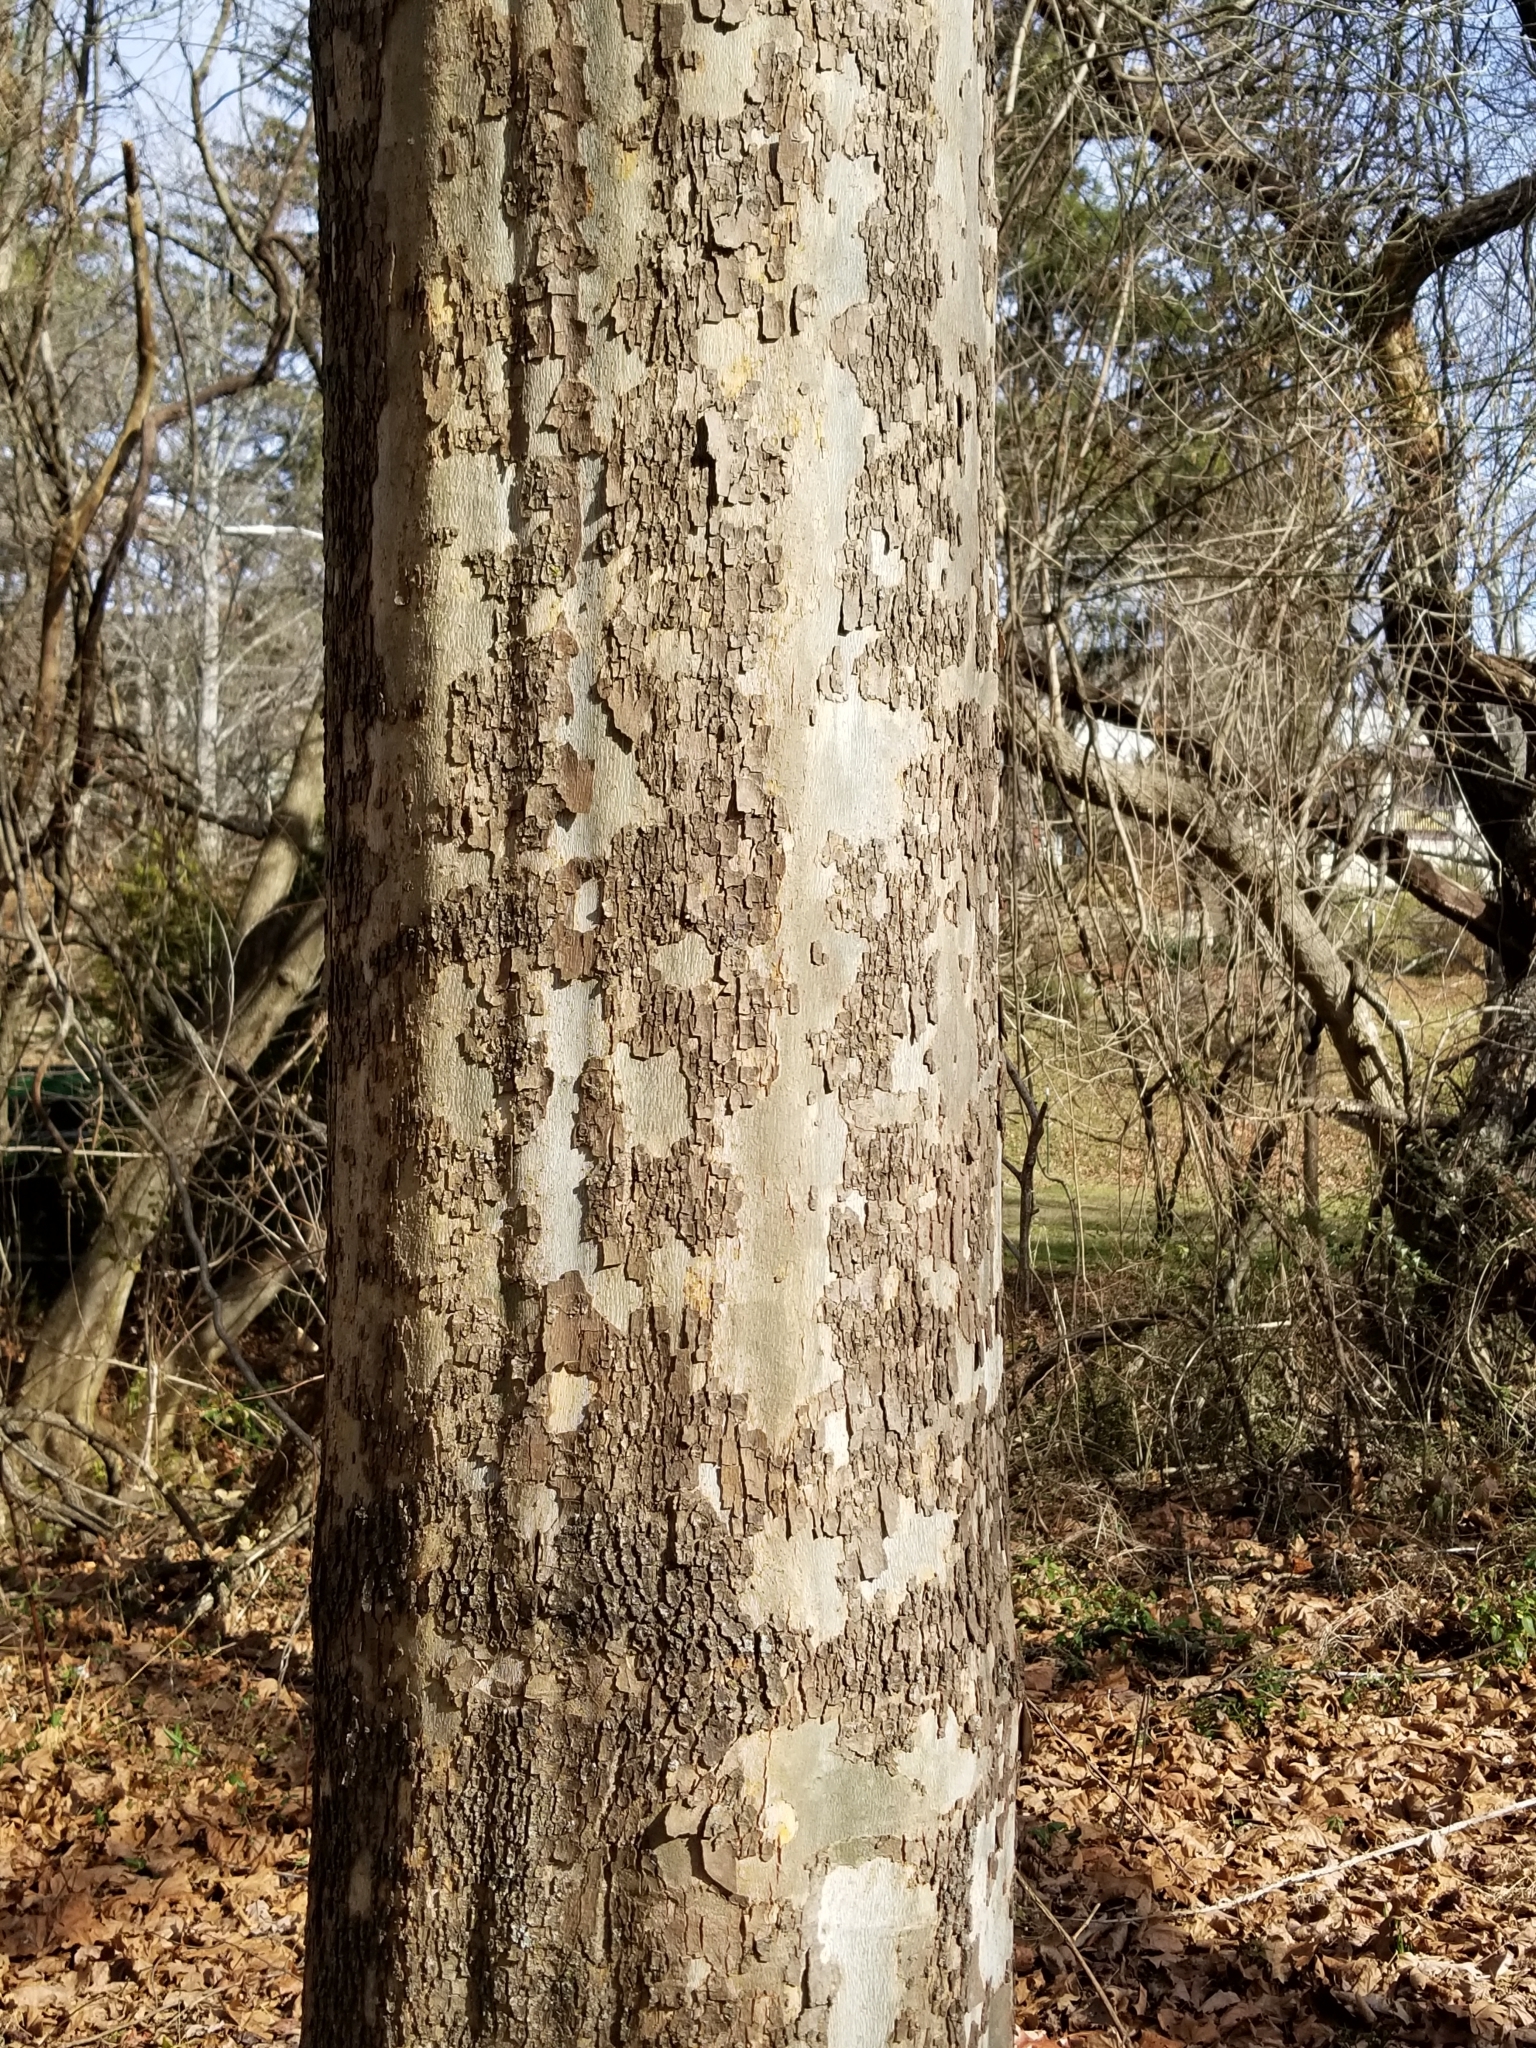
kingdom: Plantae
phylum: Tracheophyta
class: Magnoliopsida
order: Proteales
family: Platanaceae
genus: Platanus
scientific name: Platanus occidentalis
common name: American sycamore
